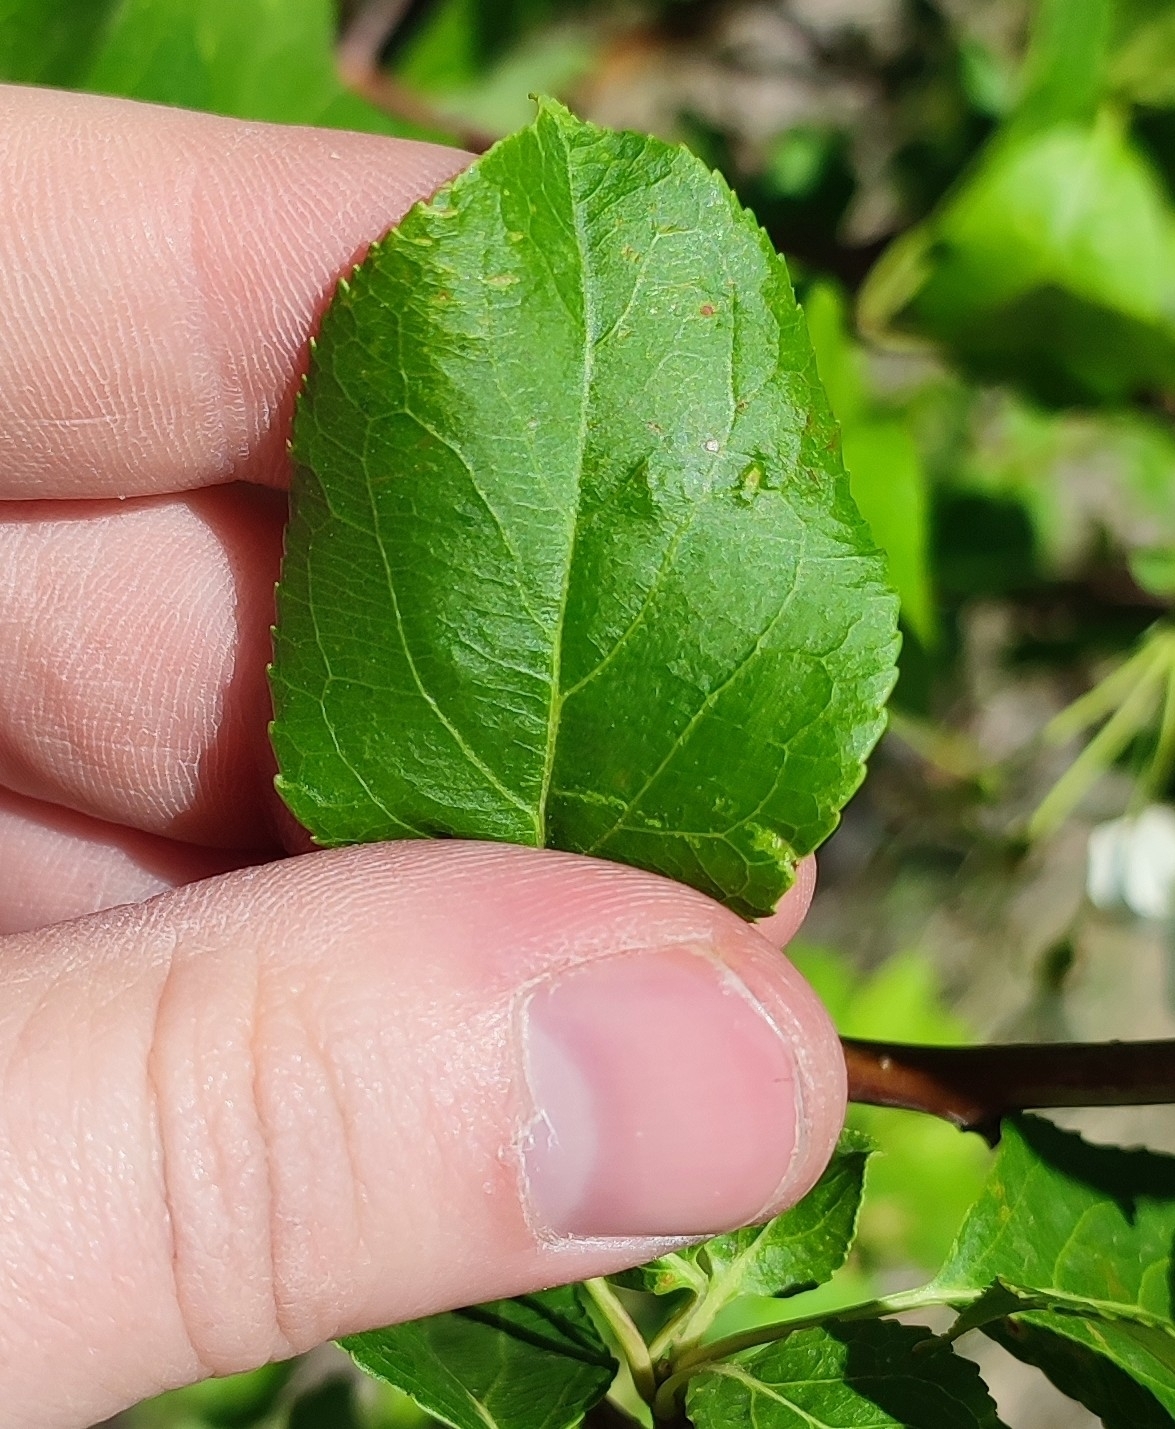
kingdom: Plantae
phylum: Tracheophyta
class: Magnoliopsida
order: Rosales
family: Rosaceae
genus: Malus
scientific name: Malus baccata
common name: Siberian crab
